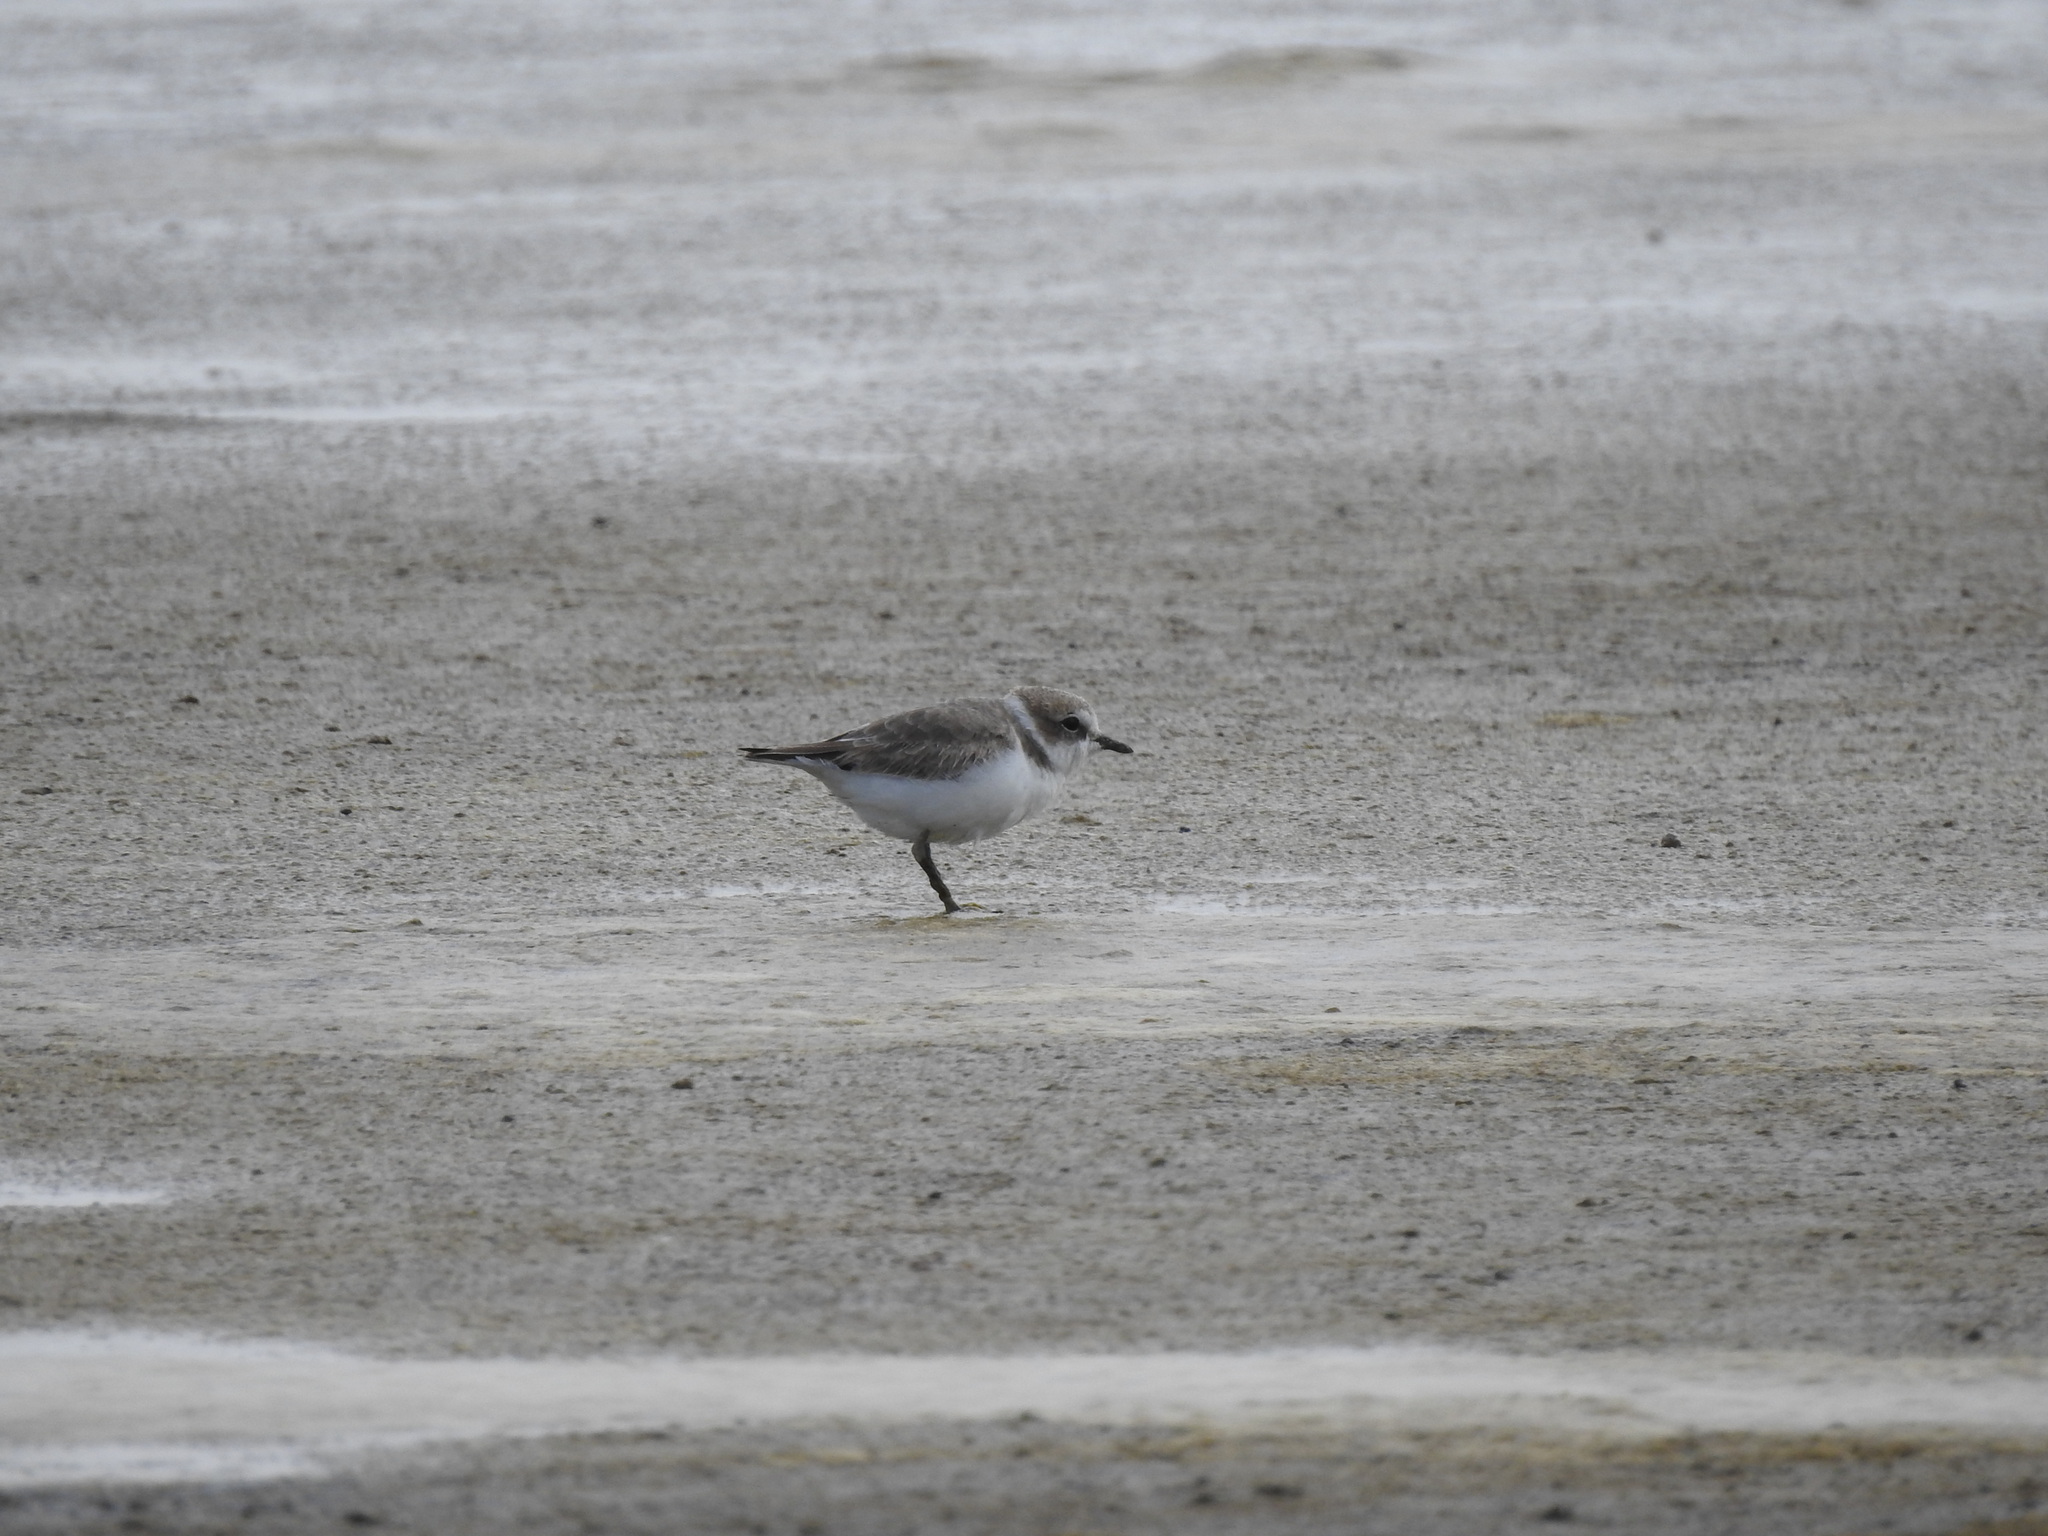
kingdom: Animalia
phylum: Chordata
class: Aves
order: Charadriiformes
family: Charadriidae
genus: Charadrius
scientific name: Charadrius semipalmatus
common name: Semipalmated plover
